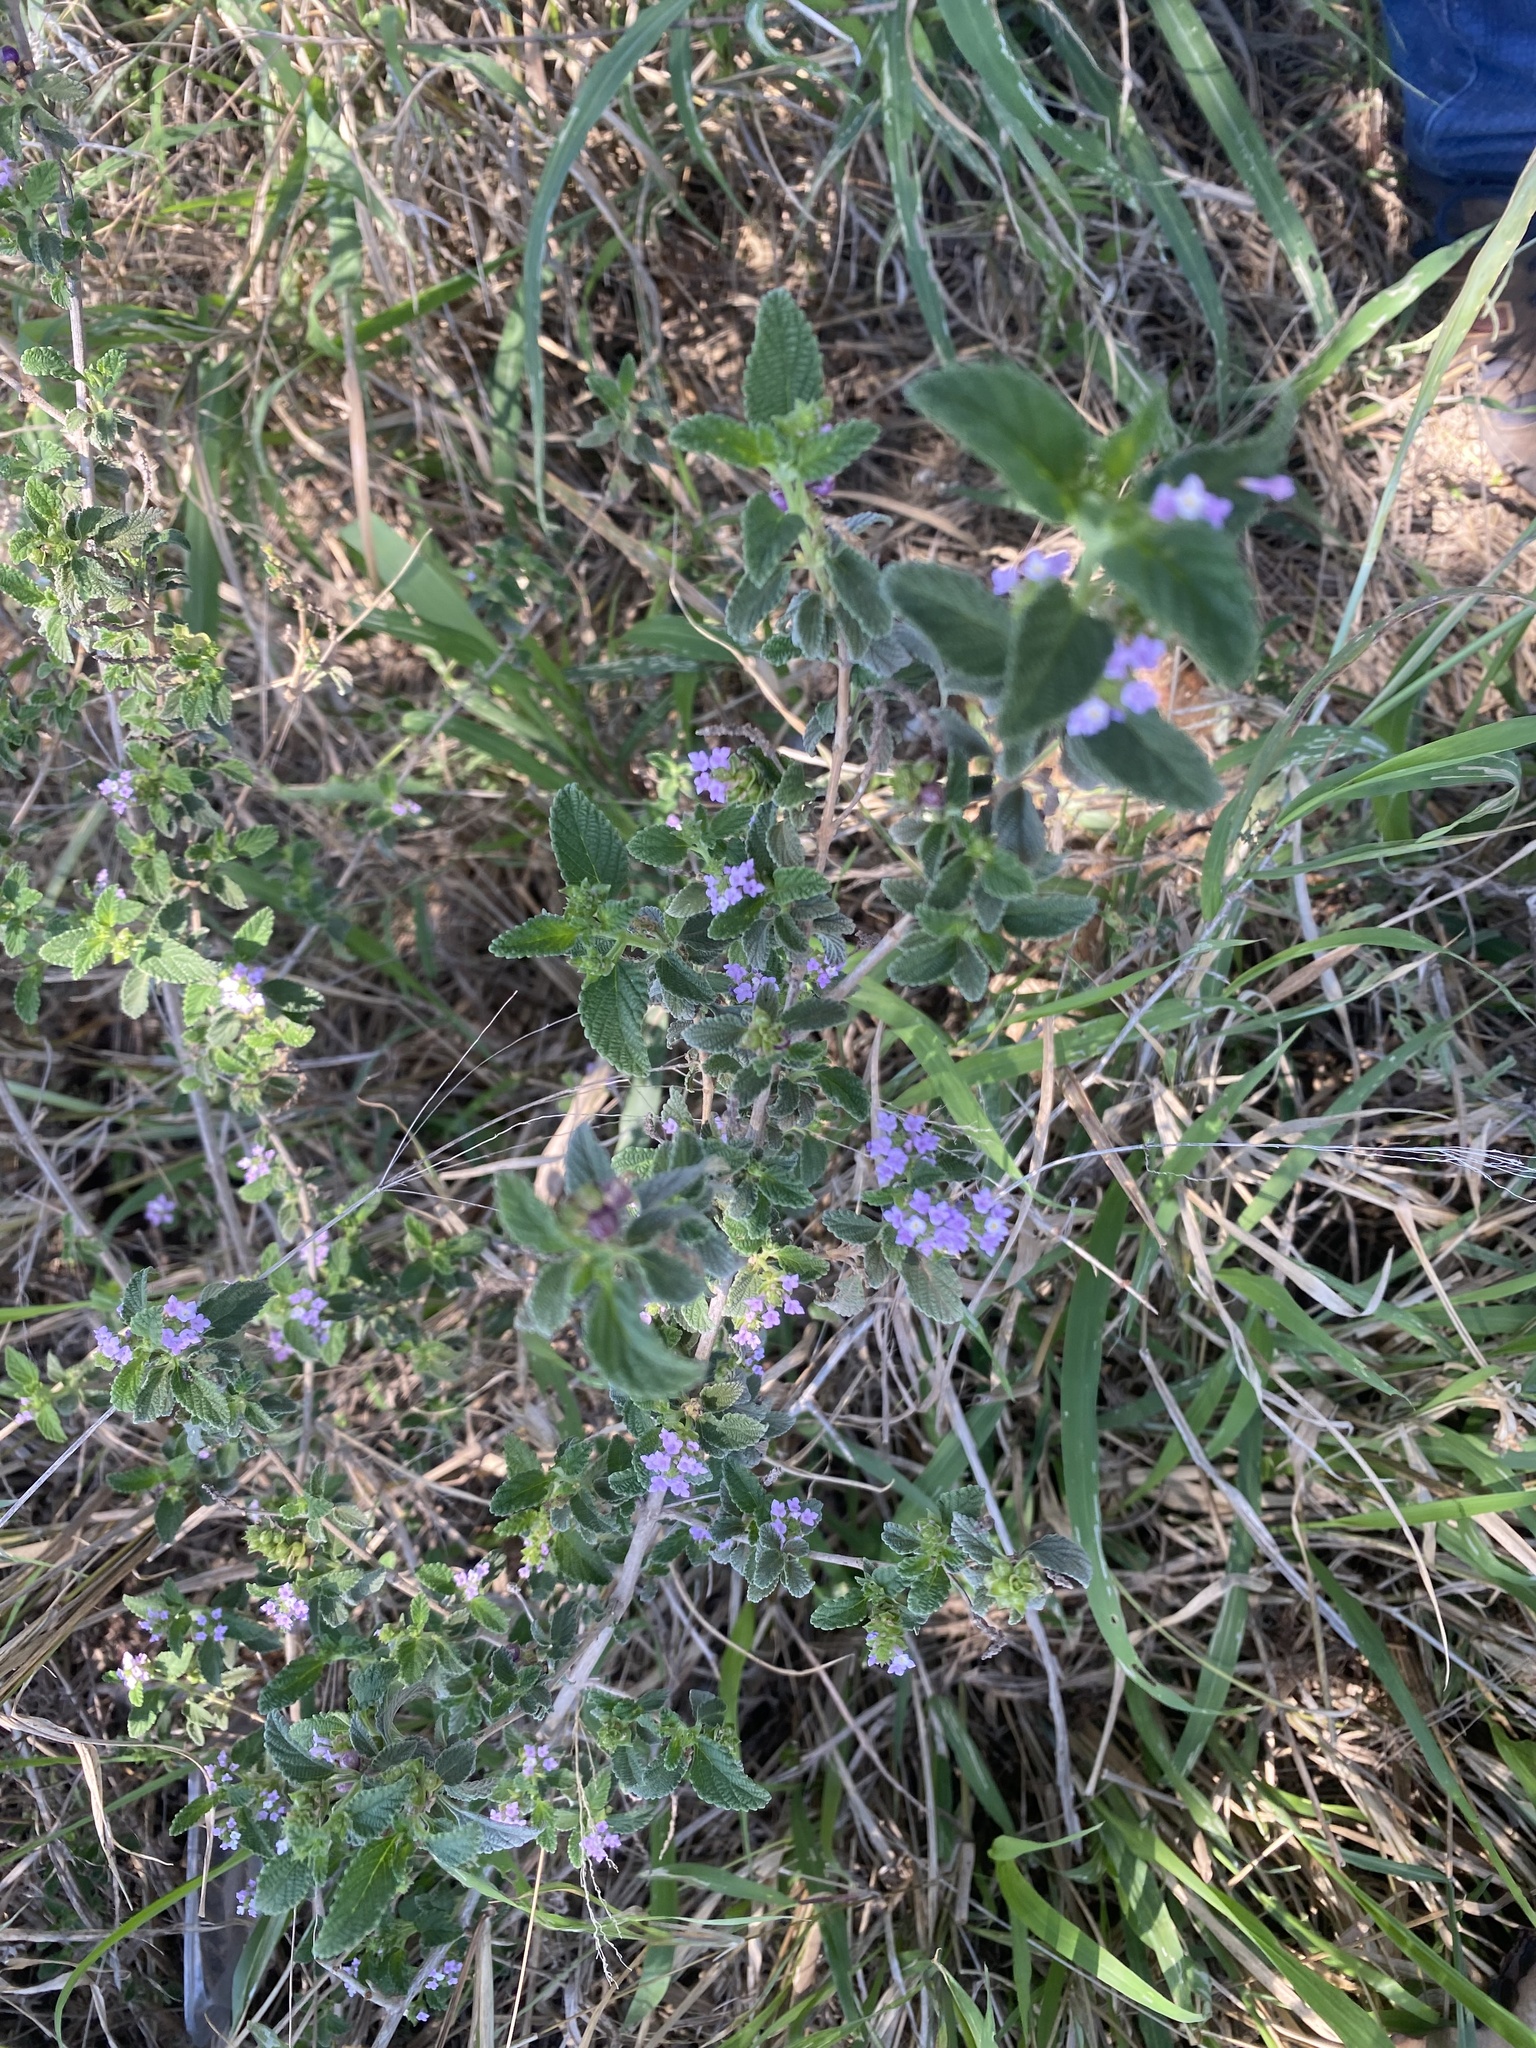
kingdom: Plantae
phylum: Tracheophyta
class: Magnoliopsida
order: Lamiales
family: Verbenaceae
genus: Lantana
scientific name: Lantana rugosa
